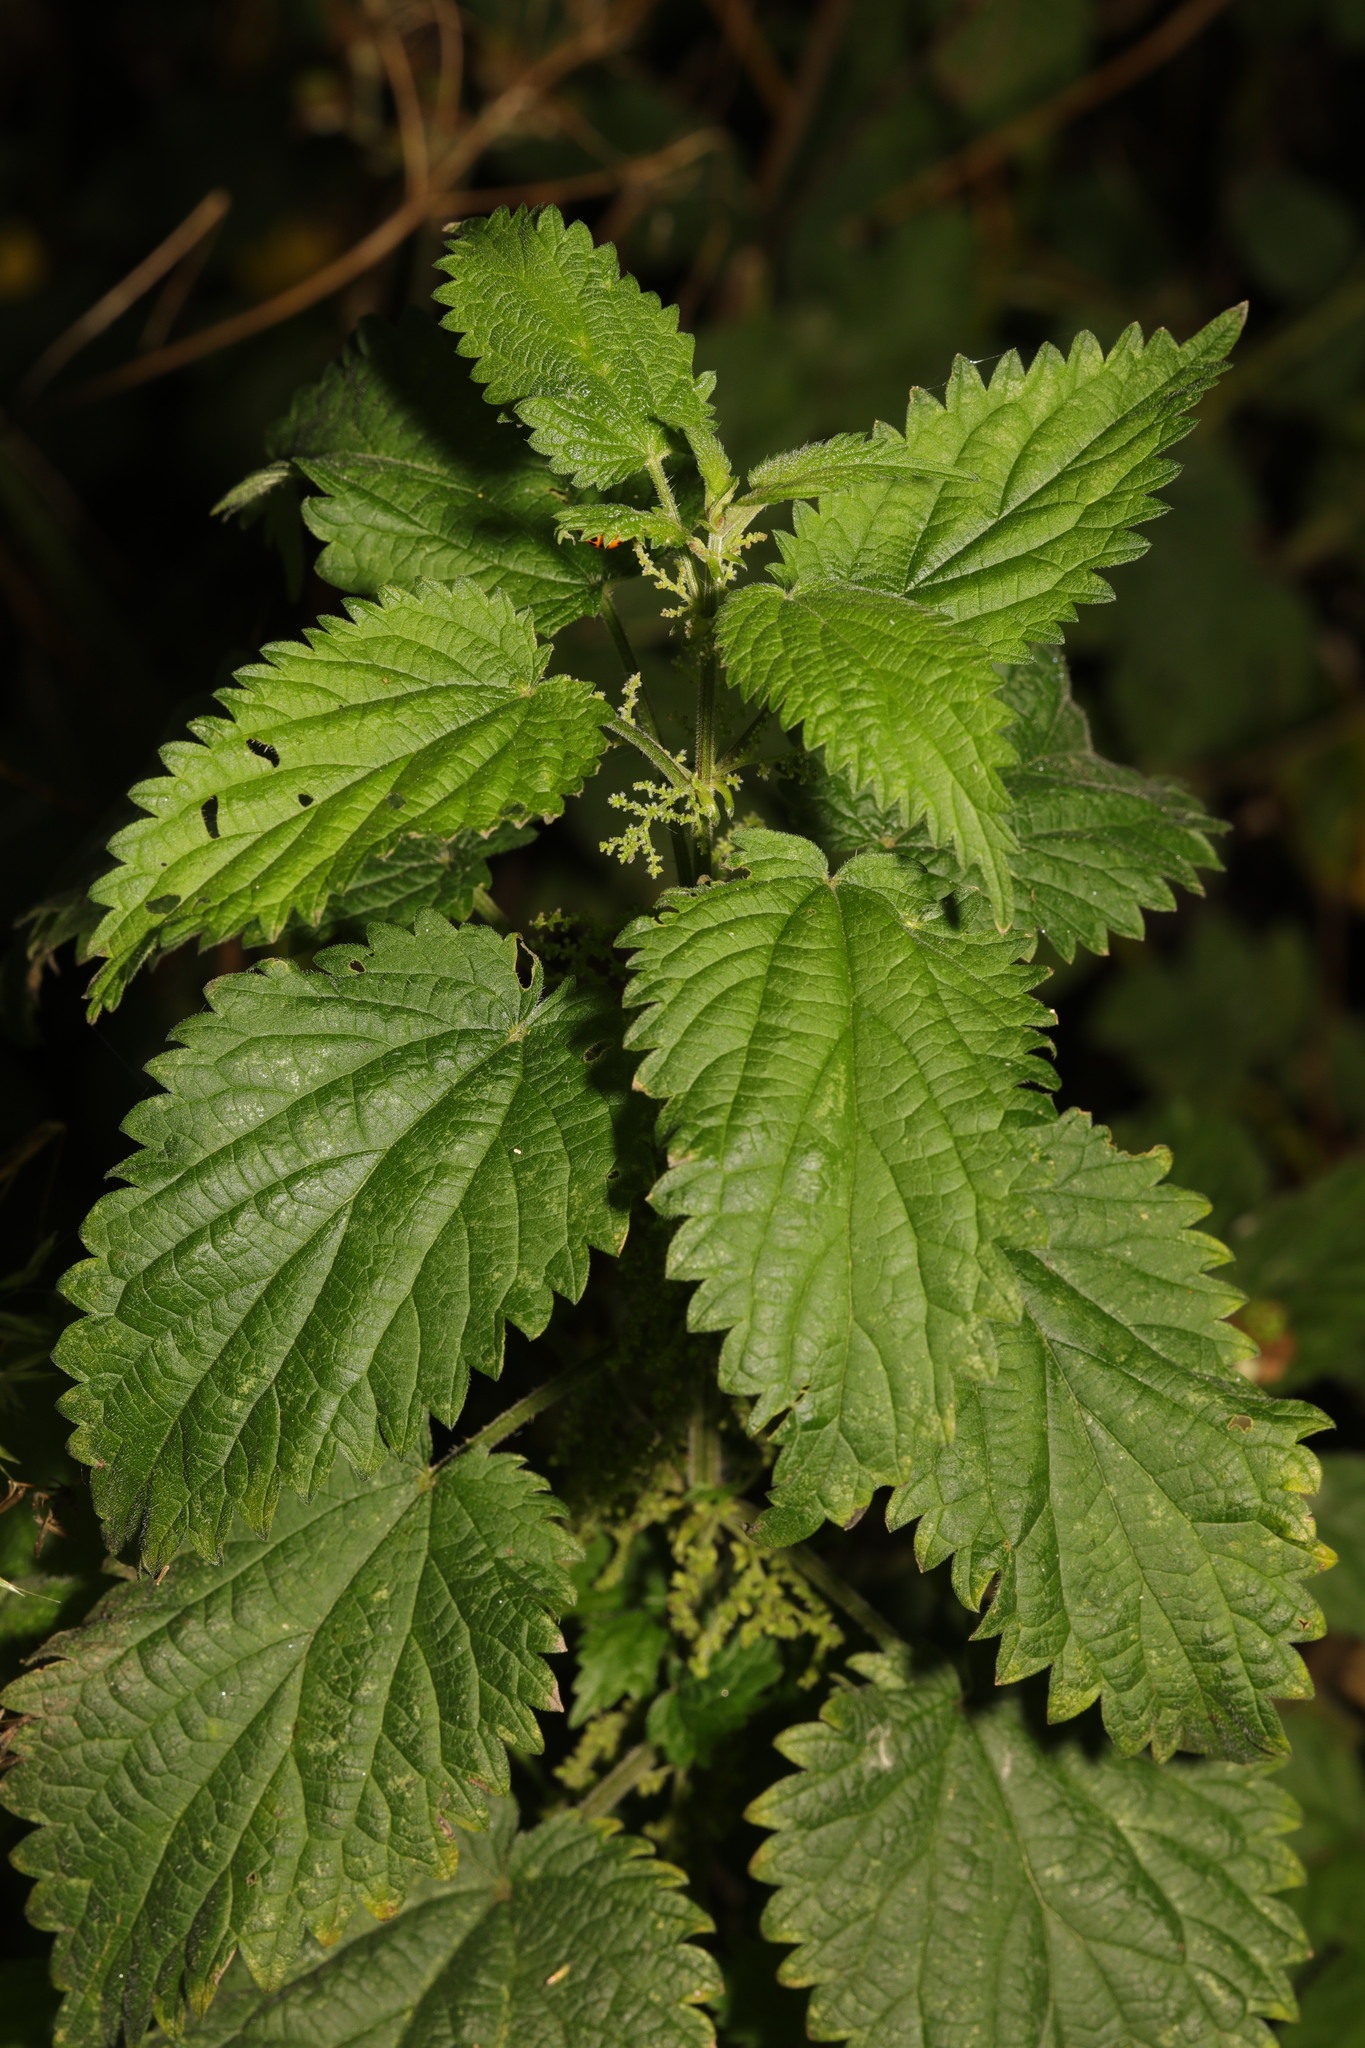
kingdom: Plantae
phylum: Tracheophyta
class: Magnoliopsida
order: Rosales
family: Urticaceae
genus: Urtica
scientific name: Urtica dioica
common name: Common nettle
